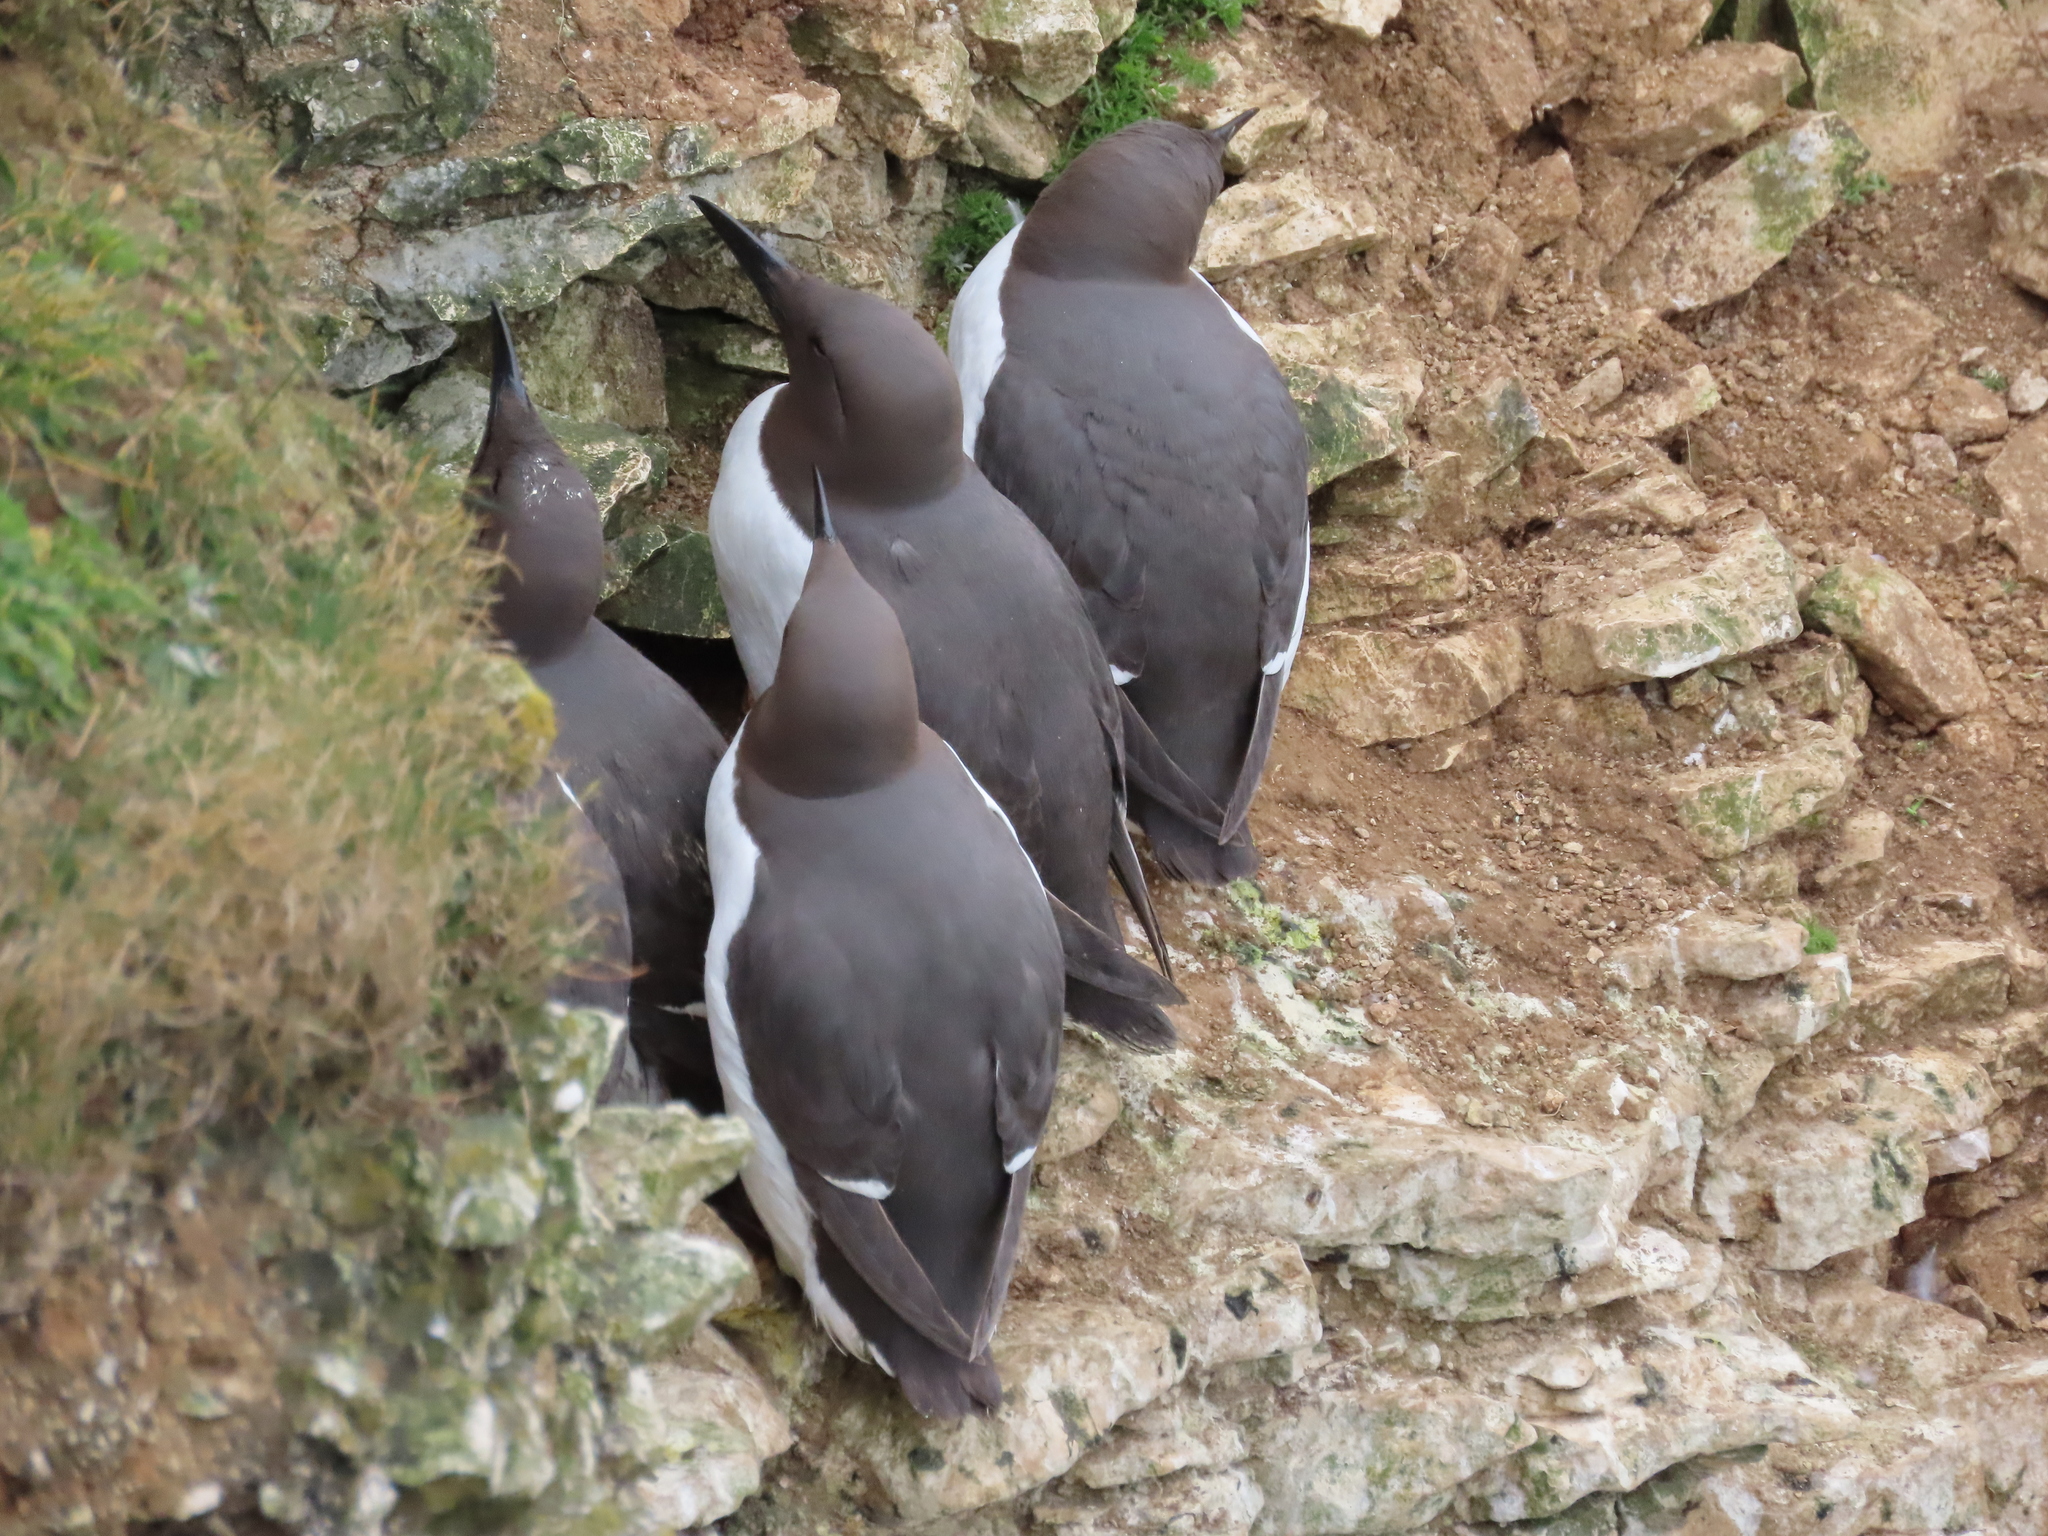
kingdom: Animalia
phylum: Chordata
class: Aves
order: Charadriiformes
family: Alcidae
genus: Uria
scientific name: Uria aalge
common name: Common murre
